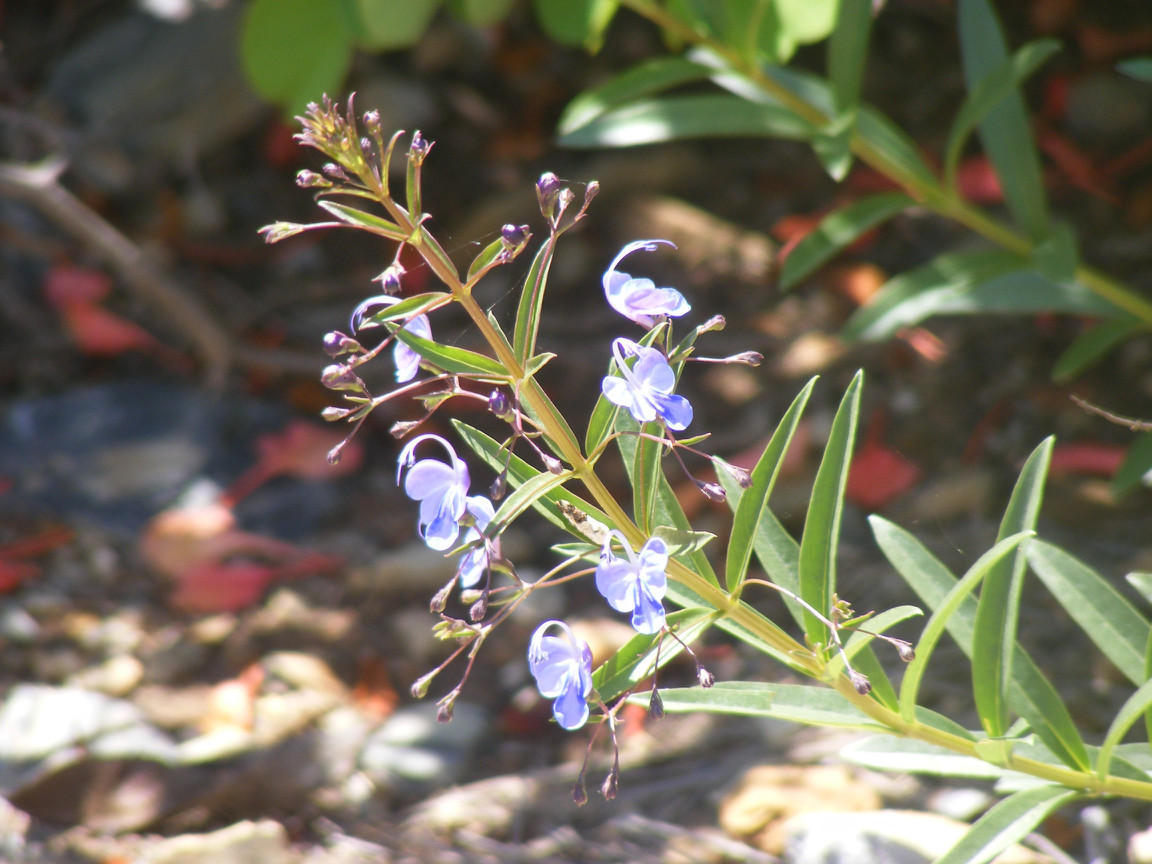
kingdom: Plantae
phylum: Tracheophyta
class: Magnoliopsida
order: Lamiales
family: Lamiaceae
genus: Rotheca
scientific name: Rotheca louwalbertsii
